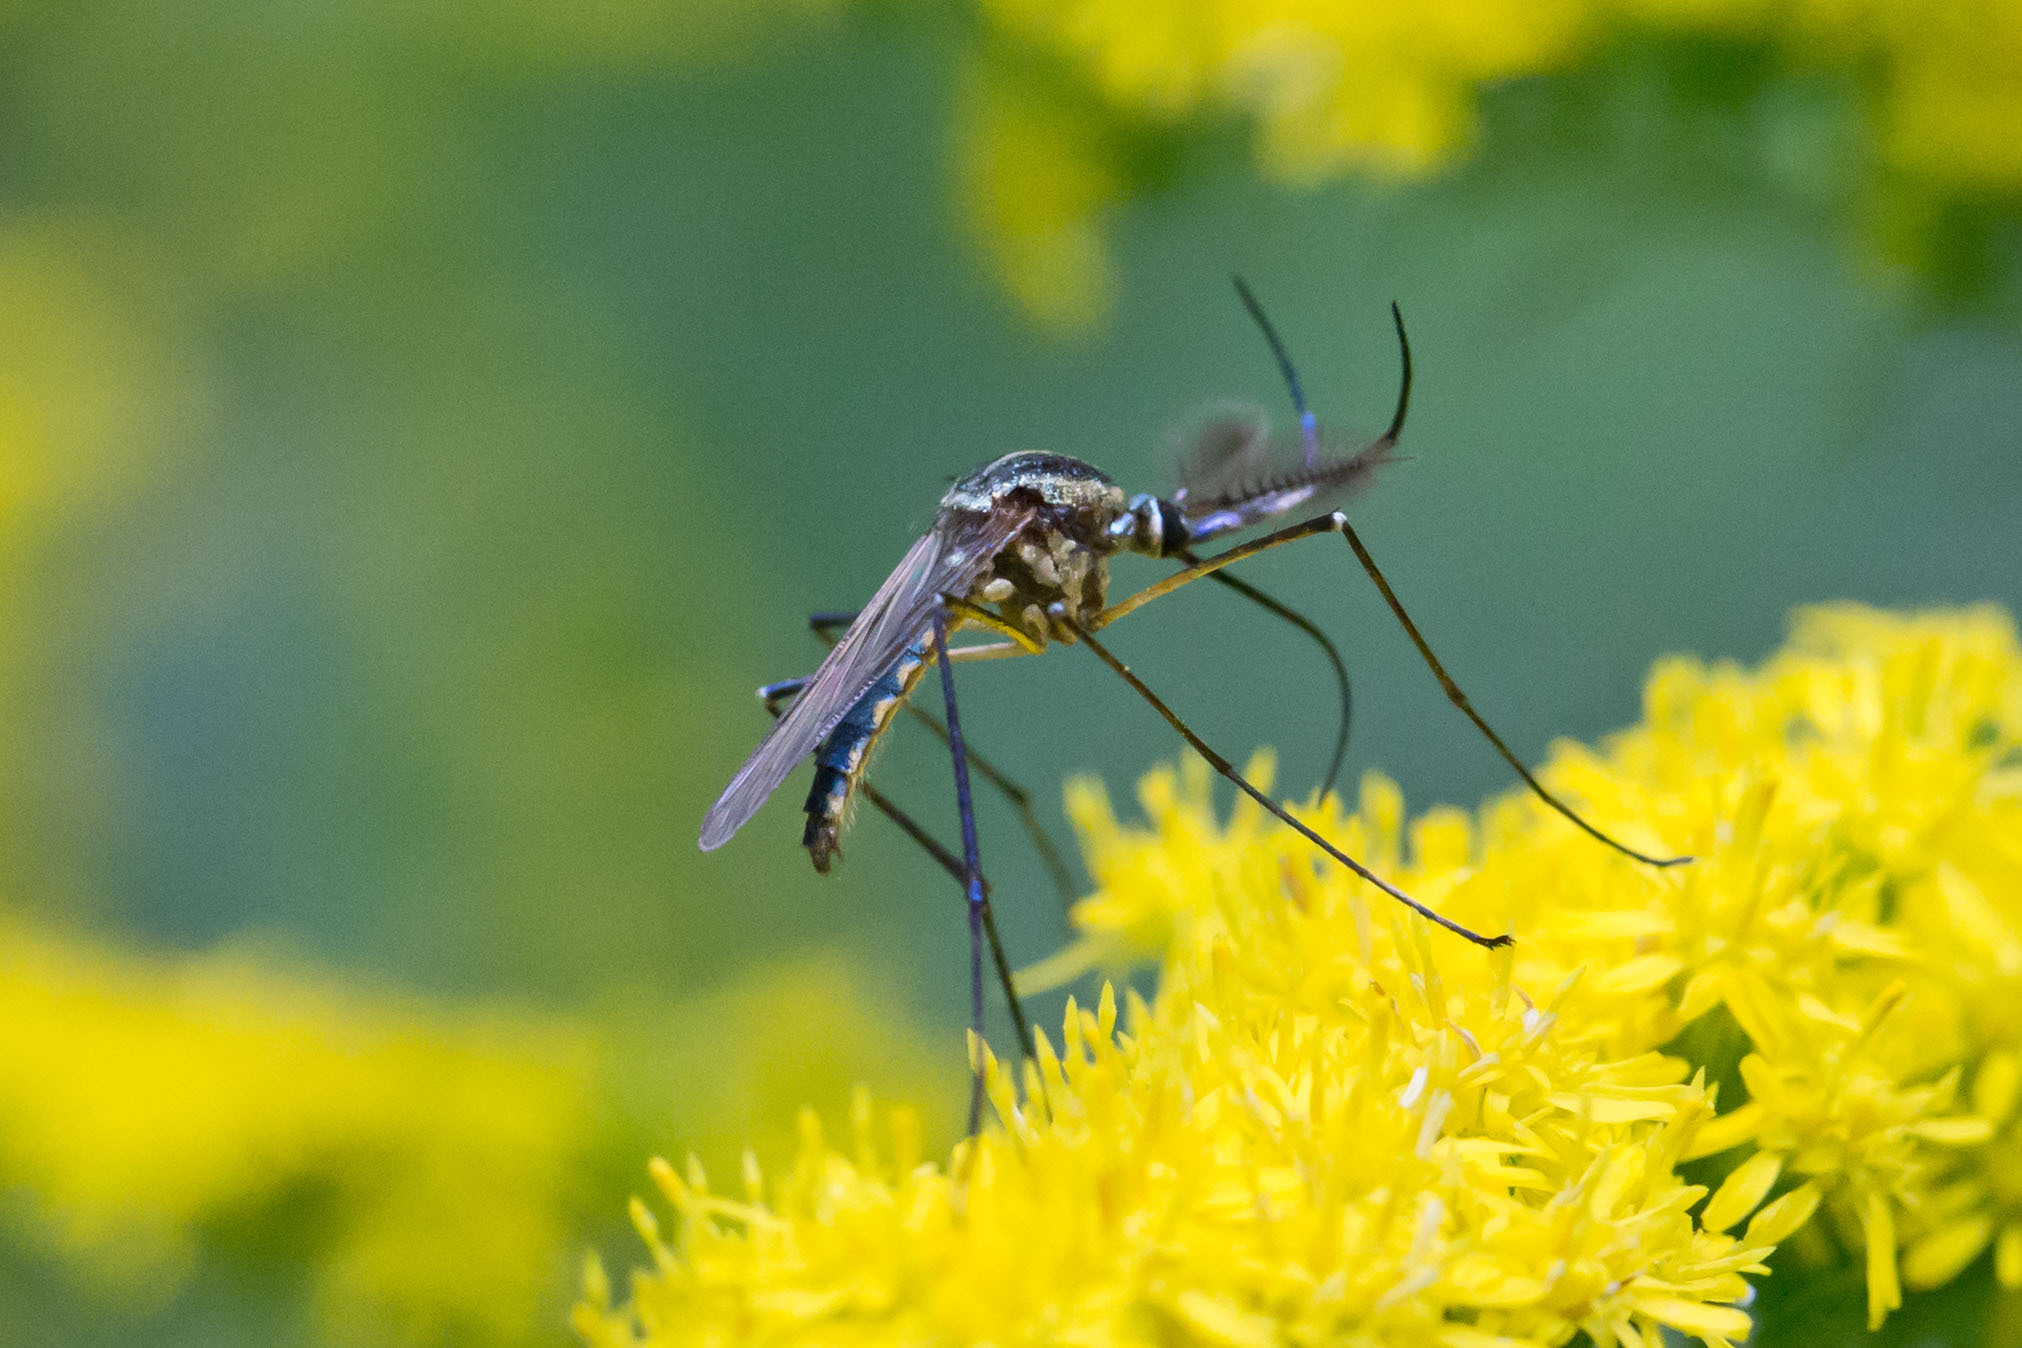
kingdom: Animalia
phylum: Arthropoda
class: Insecta
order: Diptera
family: Culicidae
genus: Toxorhynchites
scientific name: Toxorhynchites rutilus
